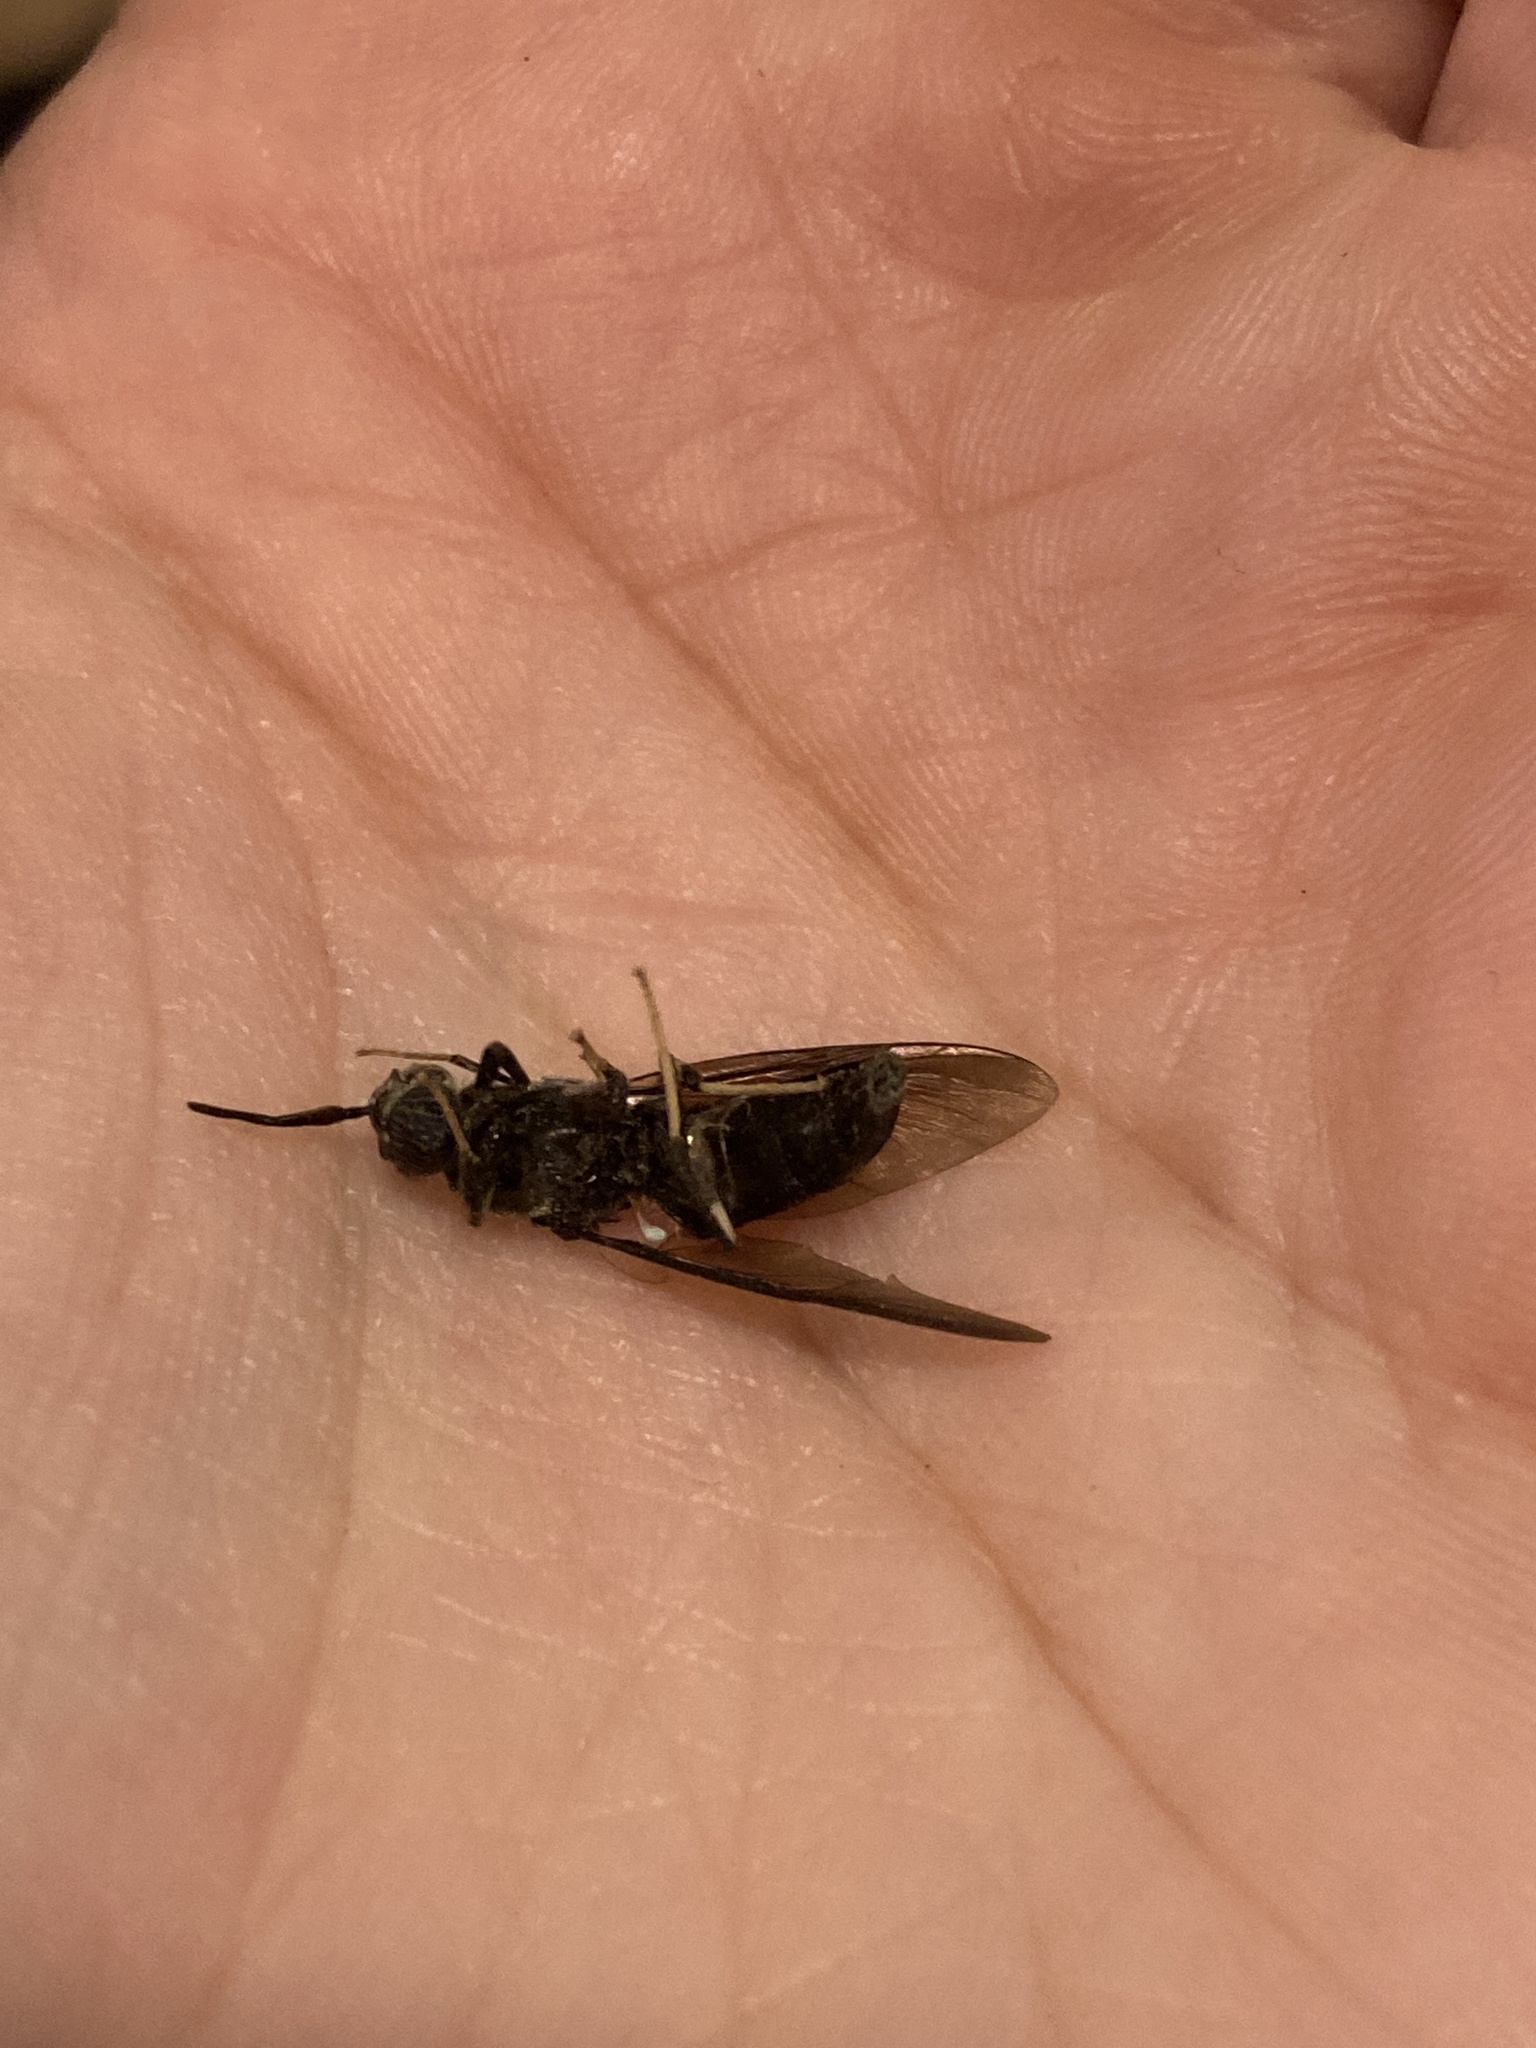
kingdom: Animalia
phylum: Arthropoda
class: Insecta
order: Diptera
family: Stratiomyidae
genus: Hermetia
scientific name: Hermetia illucens
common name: Black soldier fly
